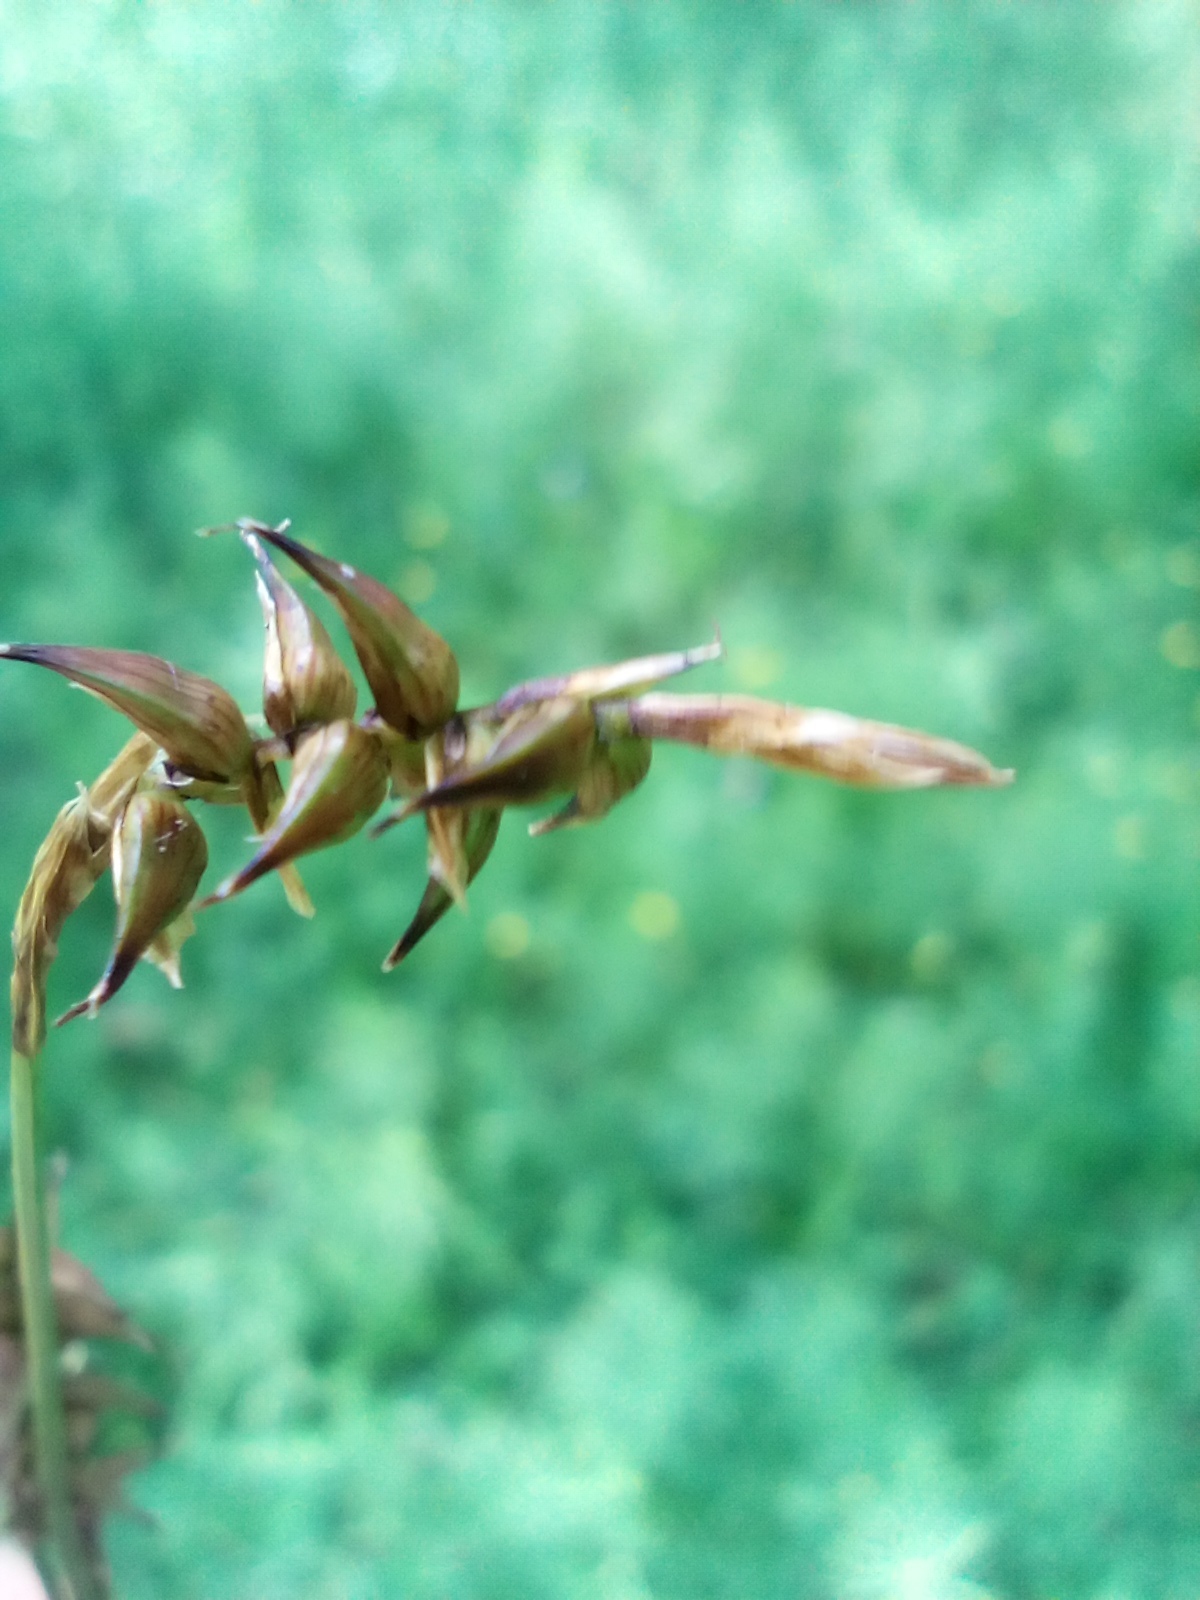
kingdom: Plantae
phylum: Tracheophyta
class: Liliopsida
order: Poales
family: Cyperaceae
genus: Carex
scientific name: Carex davalliana
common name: Davall's sedge
